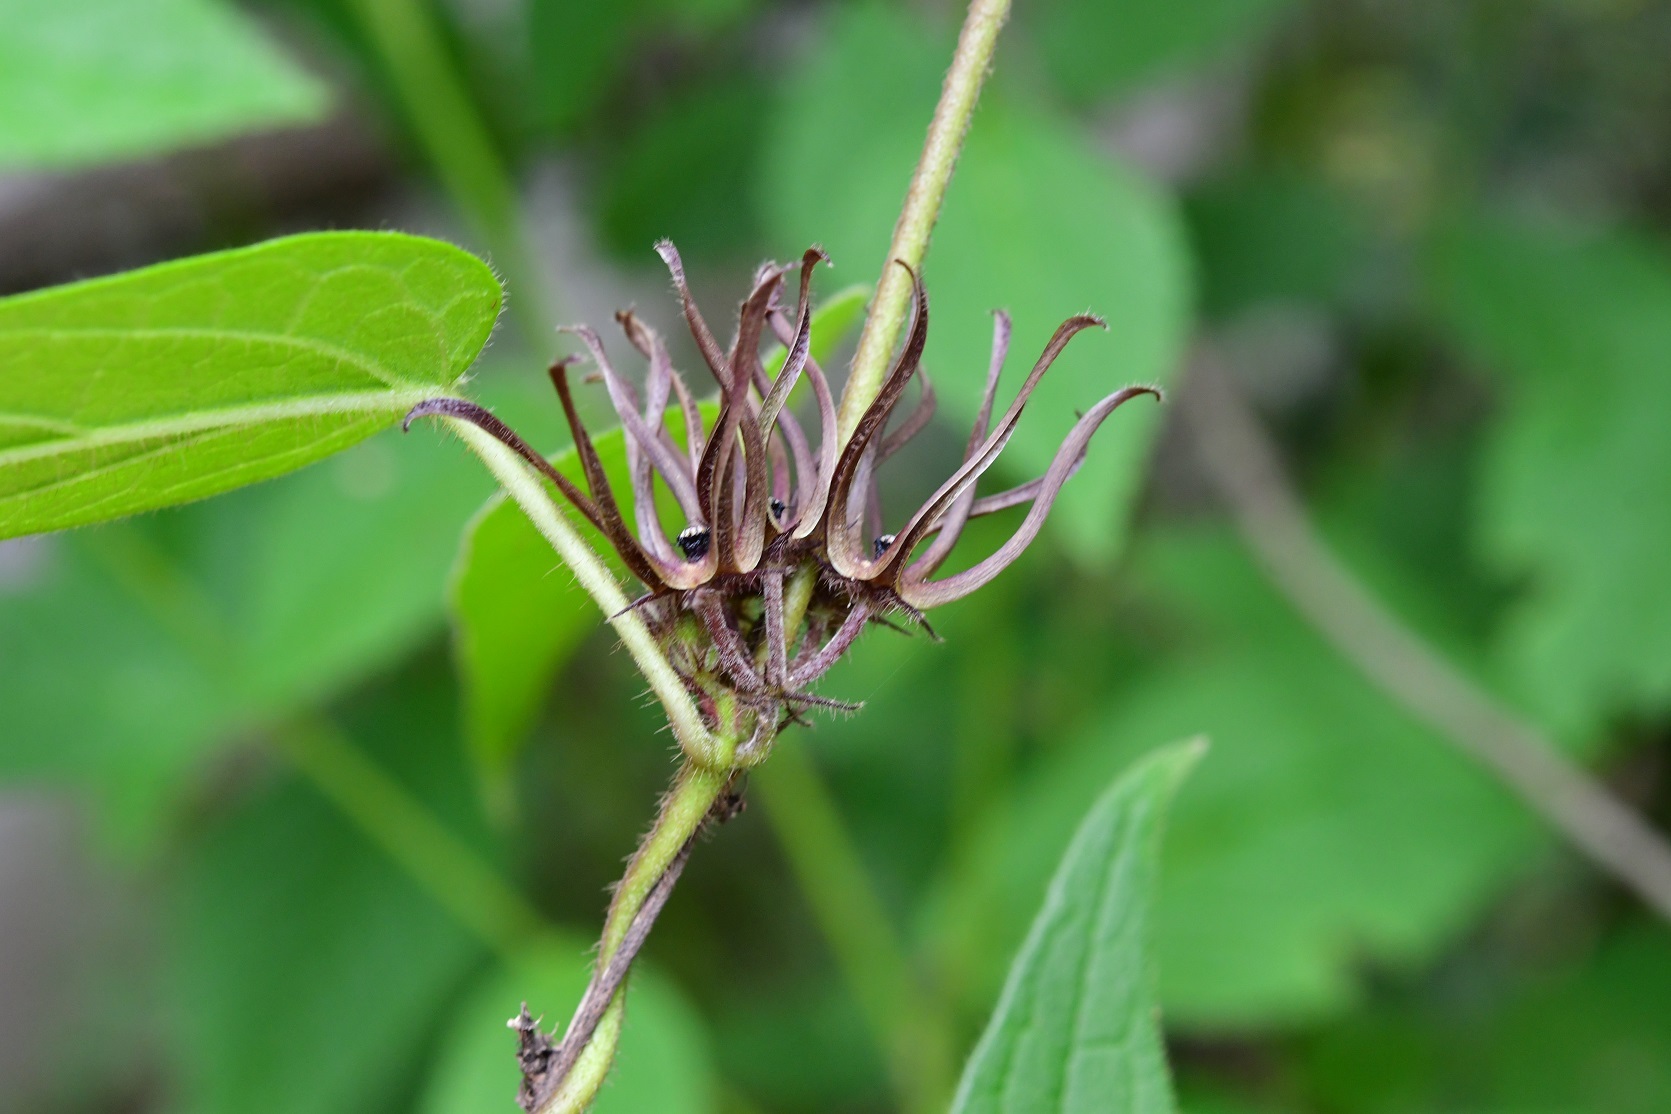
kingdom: Plantae
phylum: Tracheophyta
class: Magnoliopsida
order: Gentianales
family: Apocynaceae
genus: Matelea
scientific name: Matelea medusae
